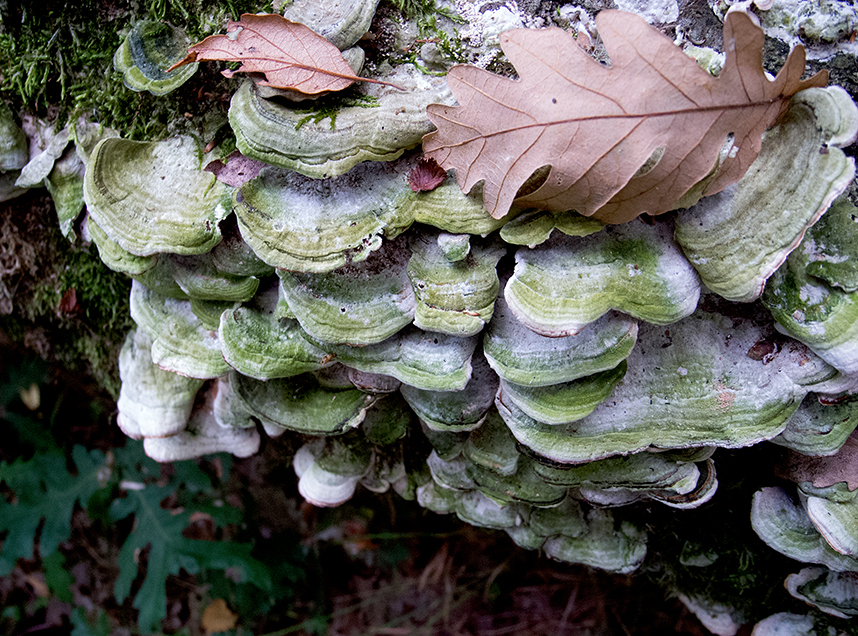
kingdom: Fungi
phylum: Basidiomycota
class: Agaricomycetes
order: Polyporales
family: Polyporaceae
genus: Trametes
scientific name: Trametes versicolor
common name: Turkeytail
